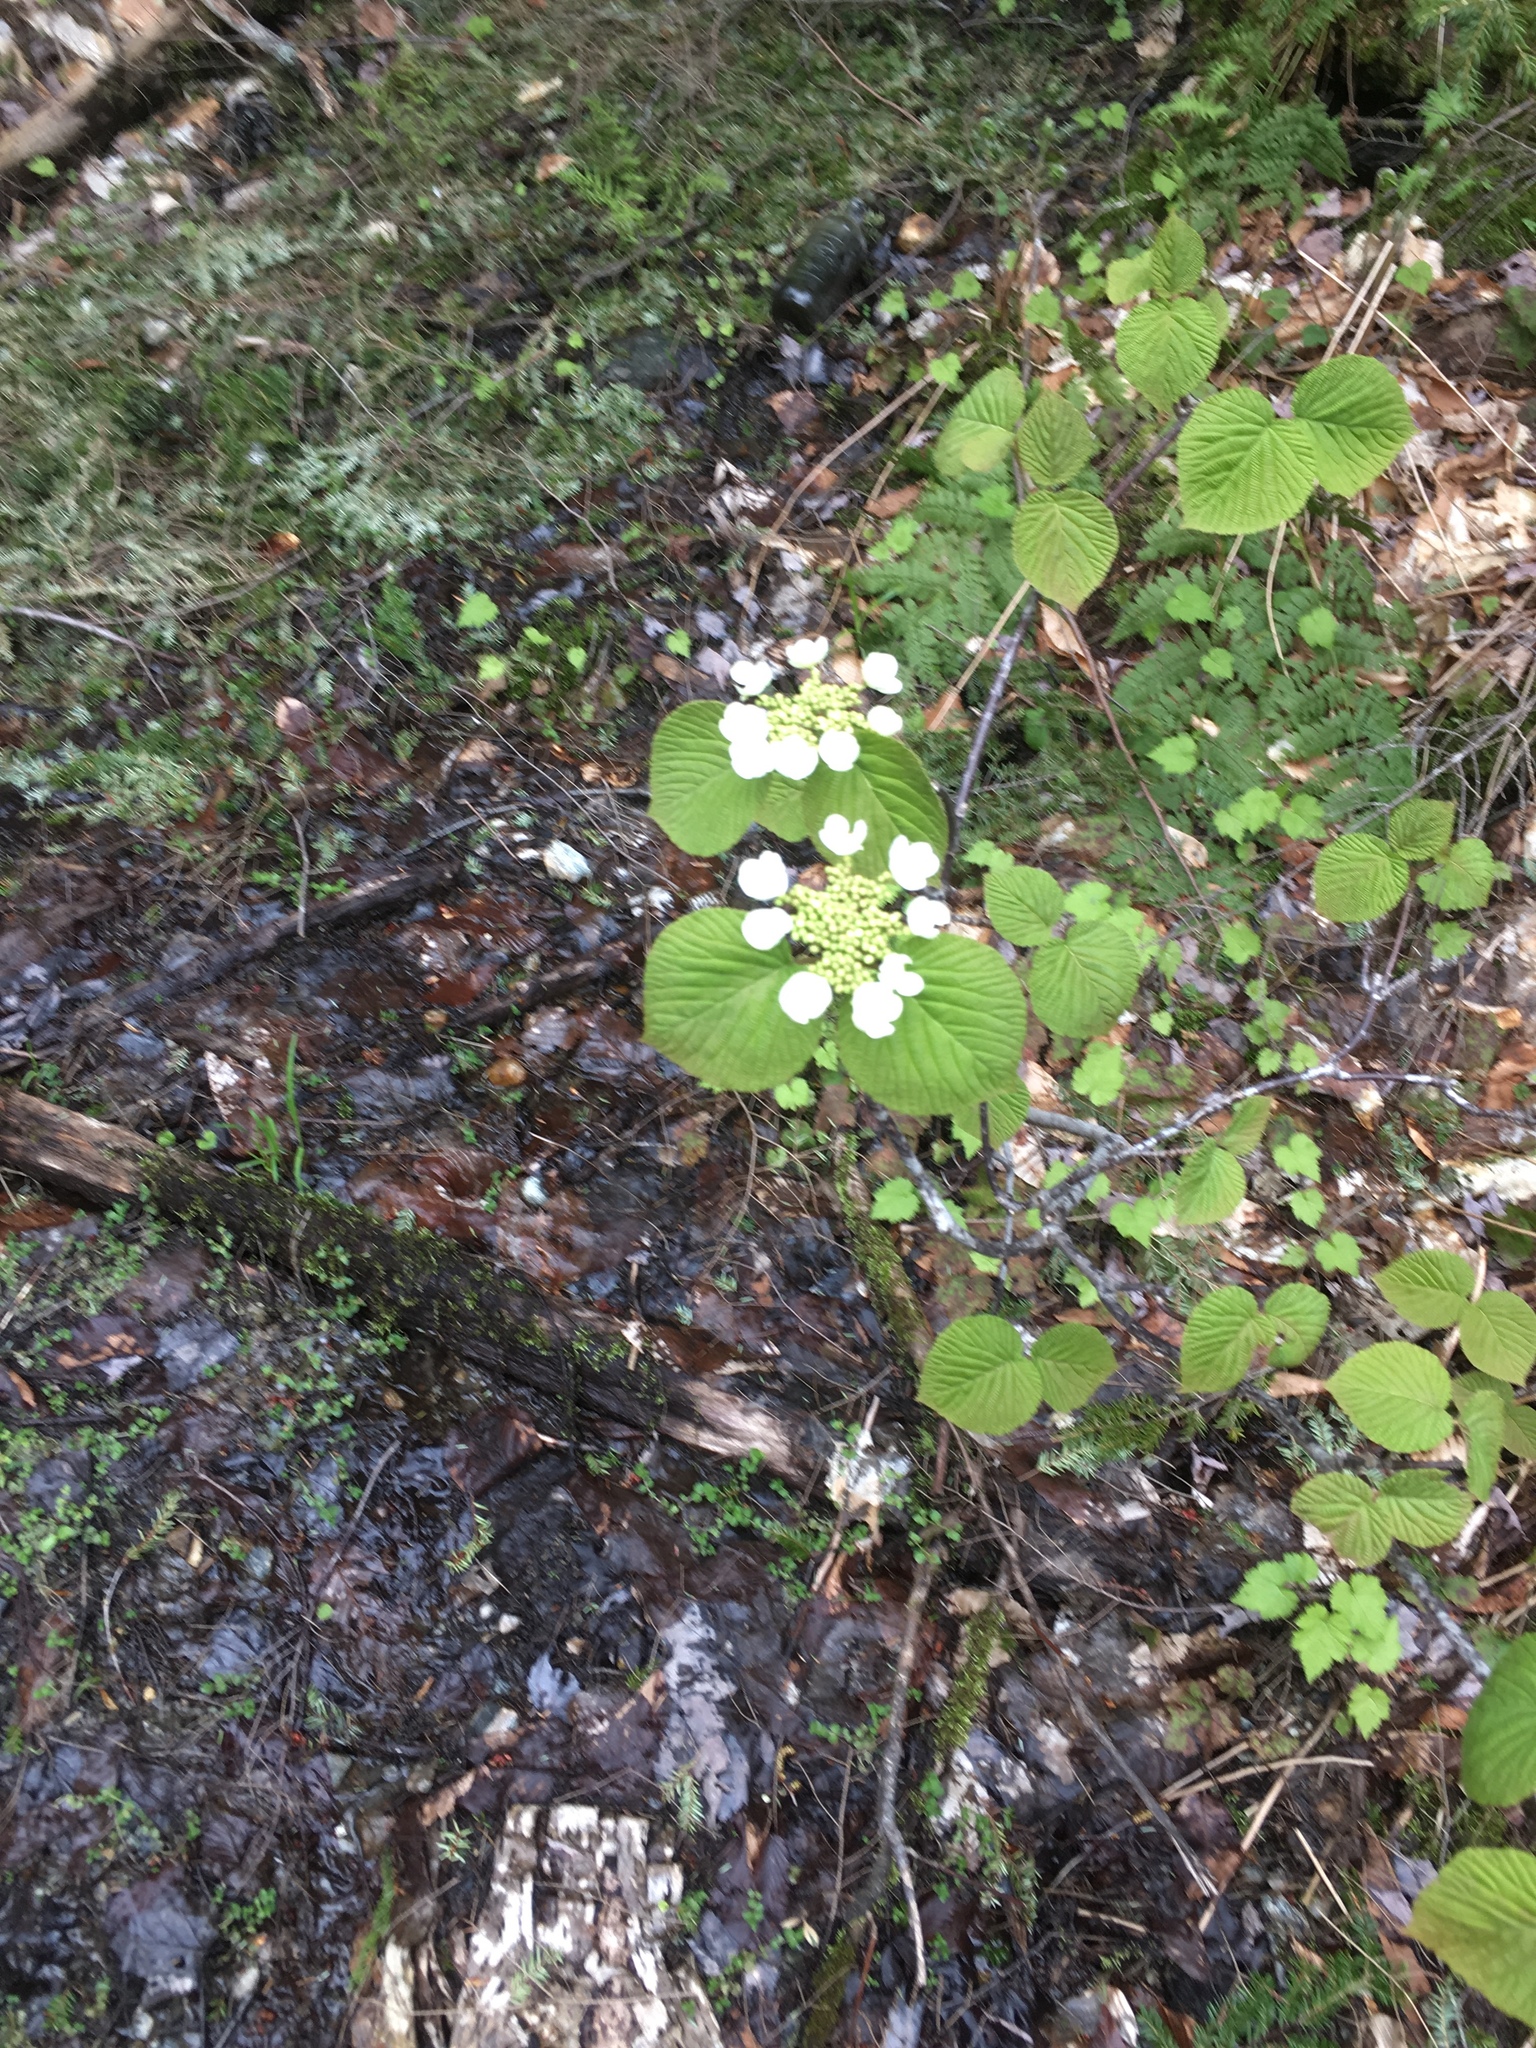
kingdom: Plantae
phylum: Tracheophyta
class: Magnoliopsida
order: Dipsacales
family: Viburnaceae
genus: Viburnum
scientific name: Viburnum lantanoides
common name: Hobblebush
